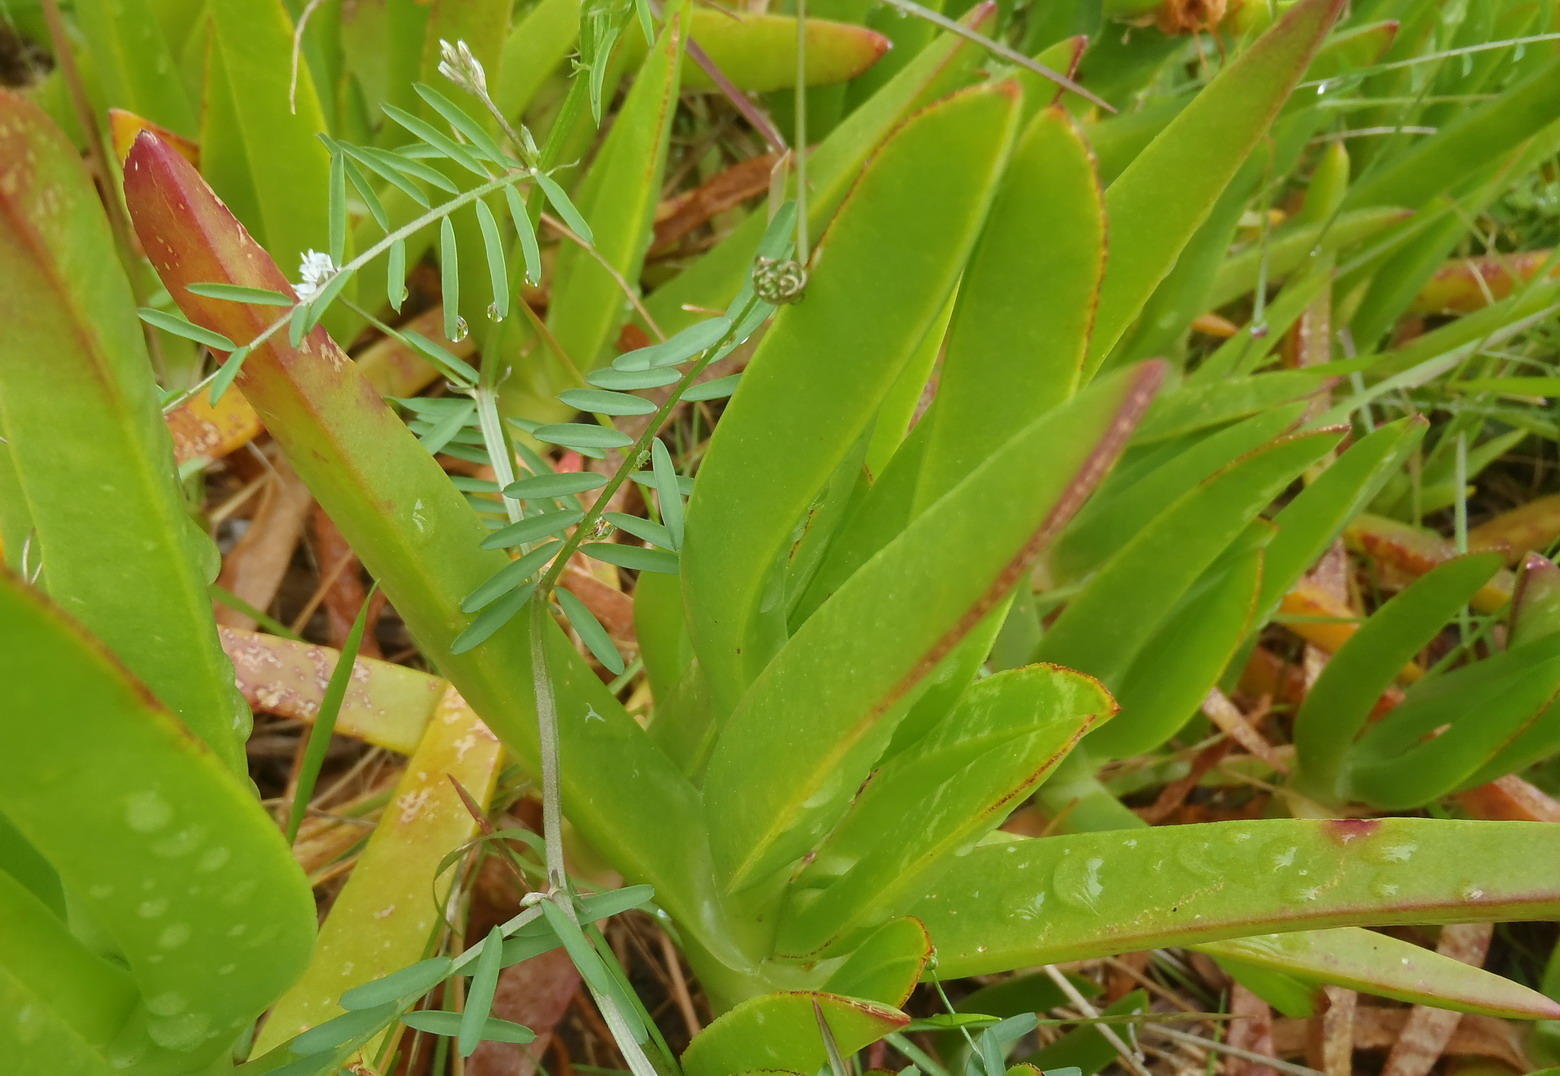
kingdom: Plantae
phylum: Tracheophyta
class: Magnoliopsida
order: Caryophyllales
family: Aizoaceae
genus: Carpobrotus
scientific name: Carpobrotus edulis
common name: Hottentot-fig
